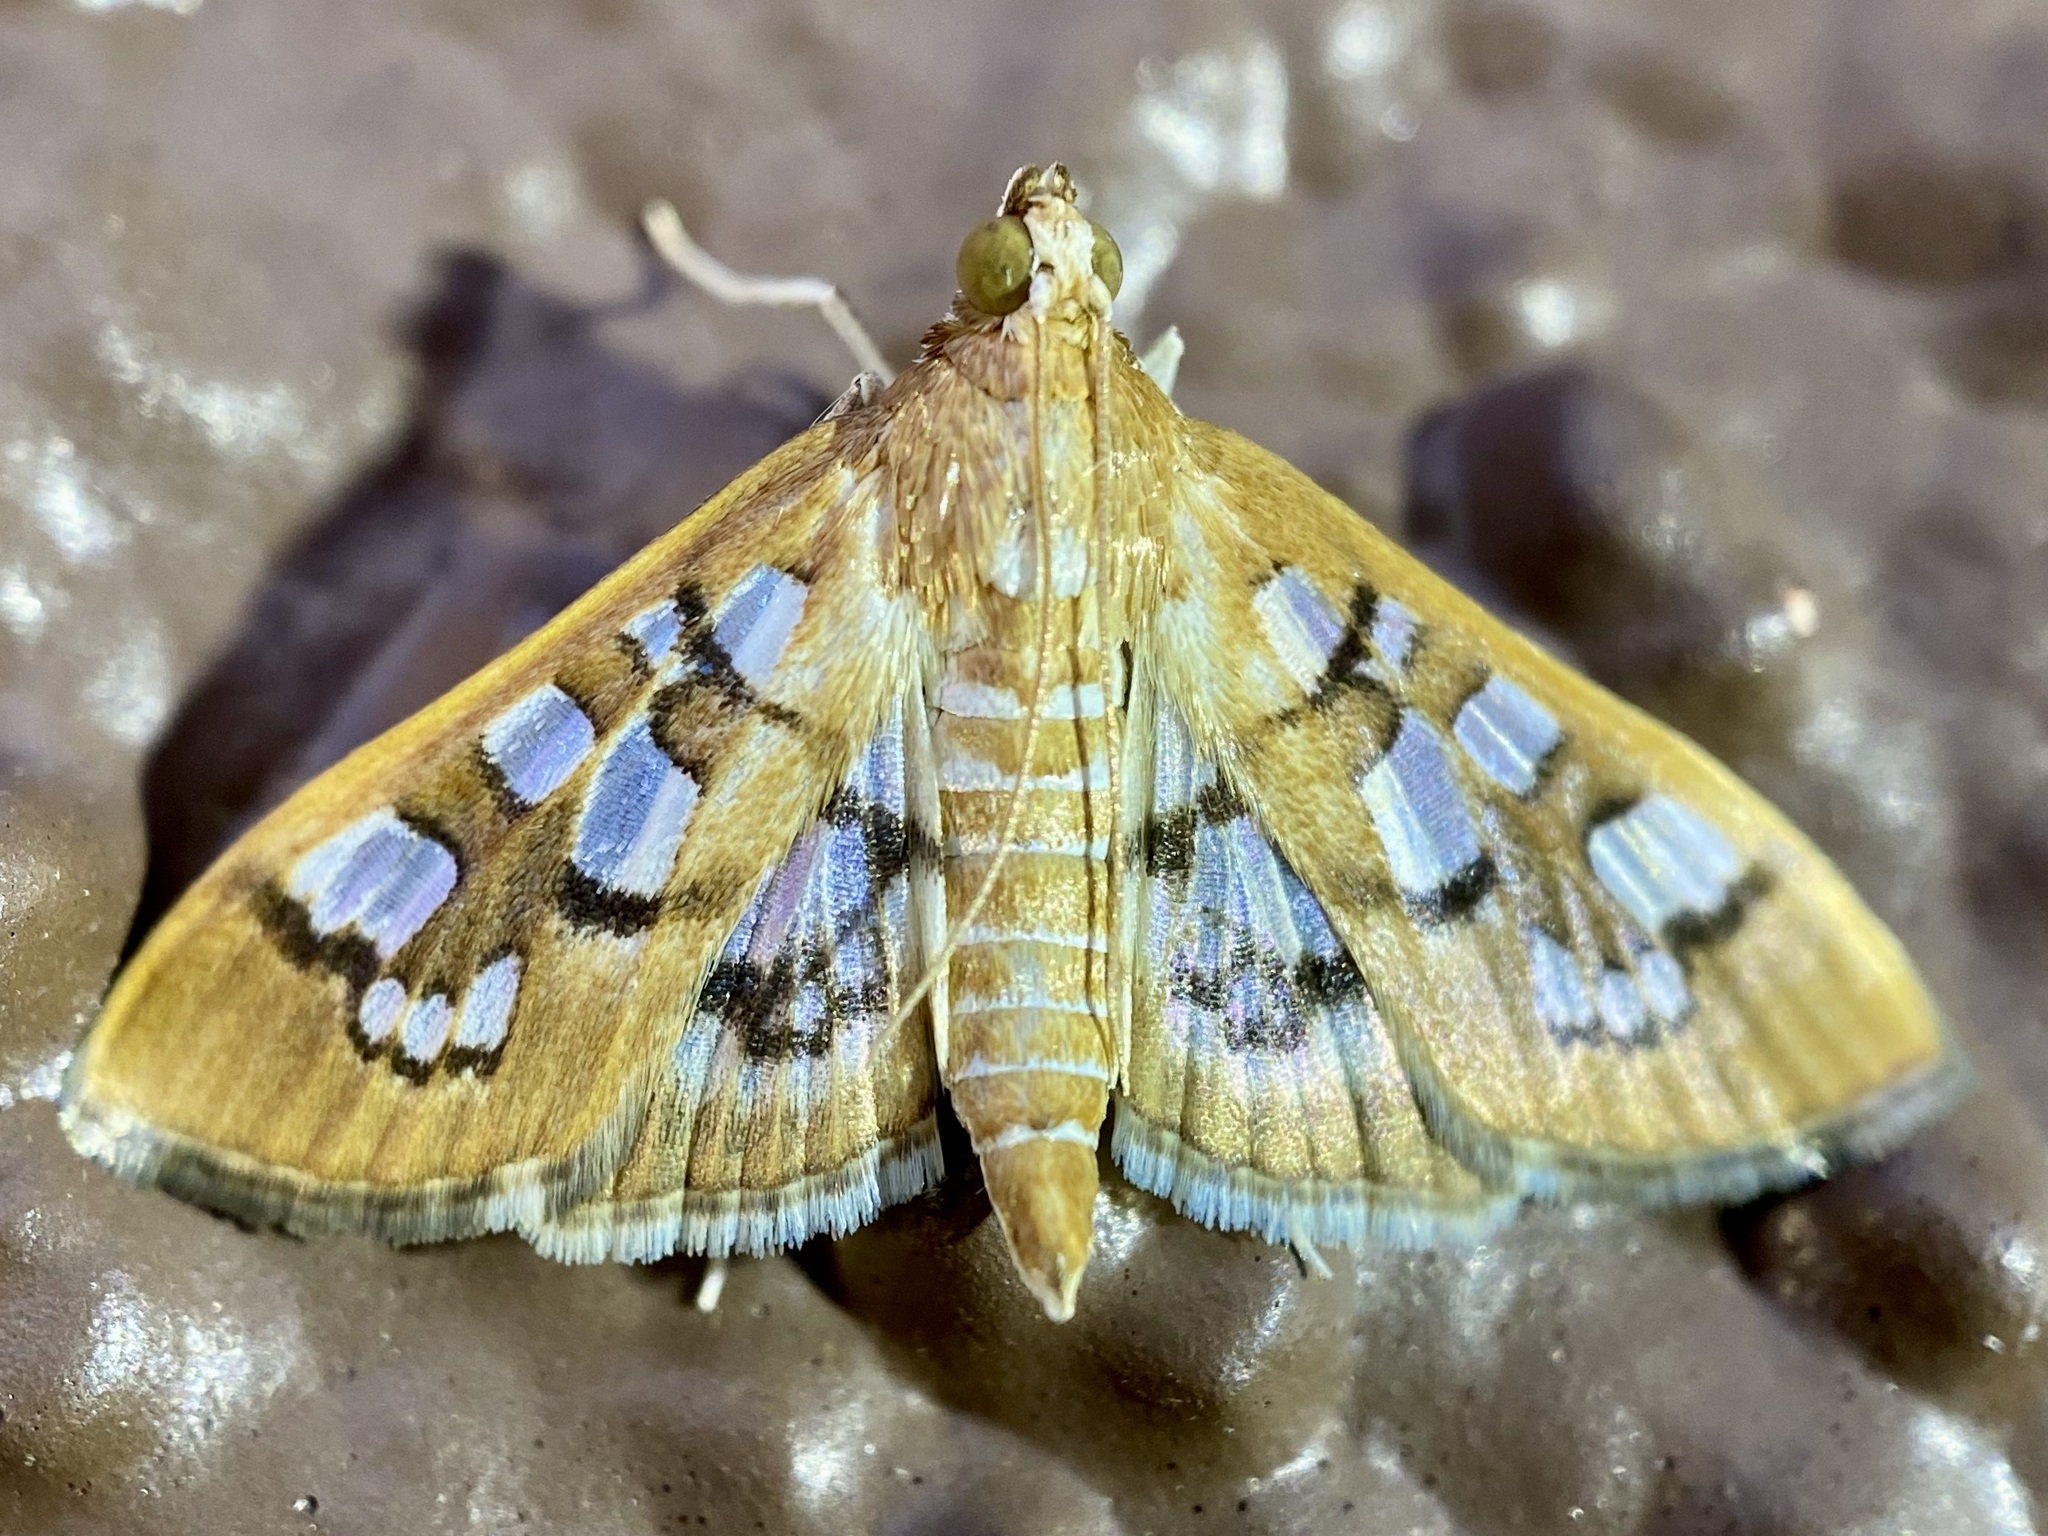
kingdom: Animalia
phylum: Arthropoda
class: Insecta
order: Lepidoptera
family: Crambidae
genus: Samea
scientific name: Samea baccatalis
